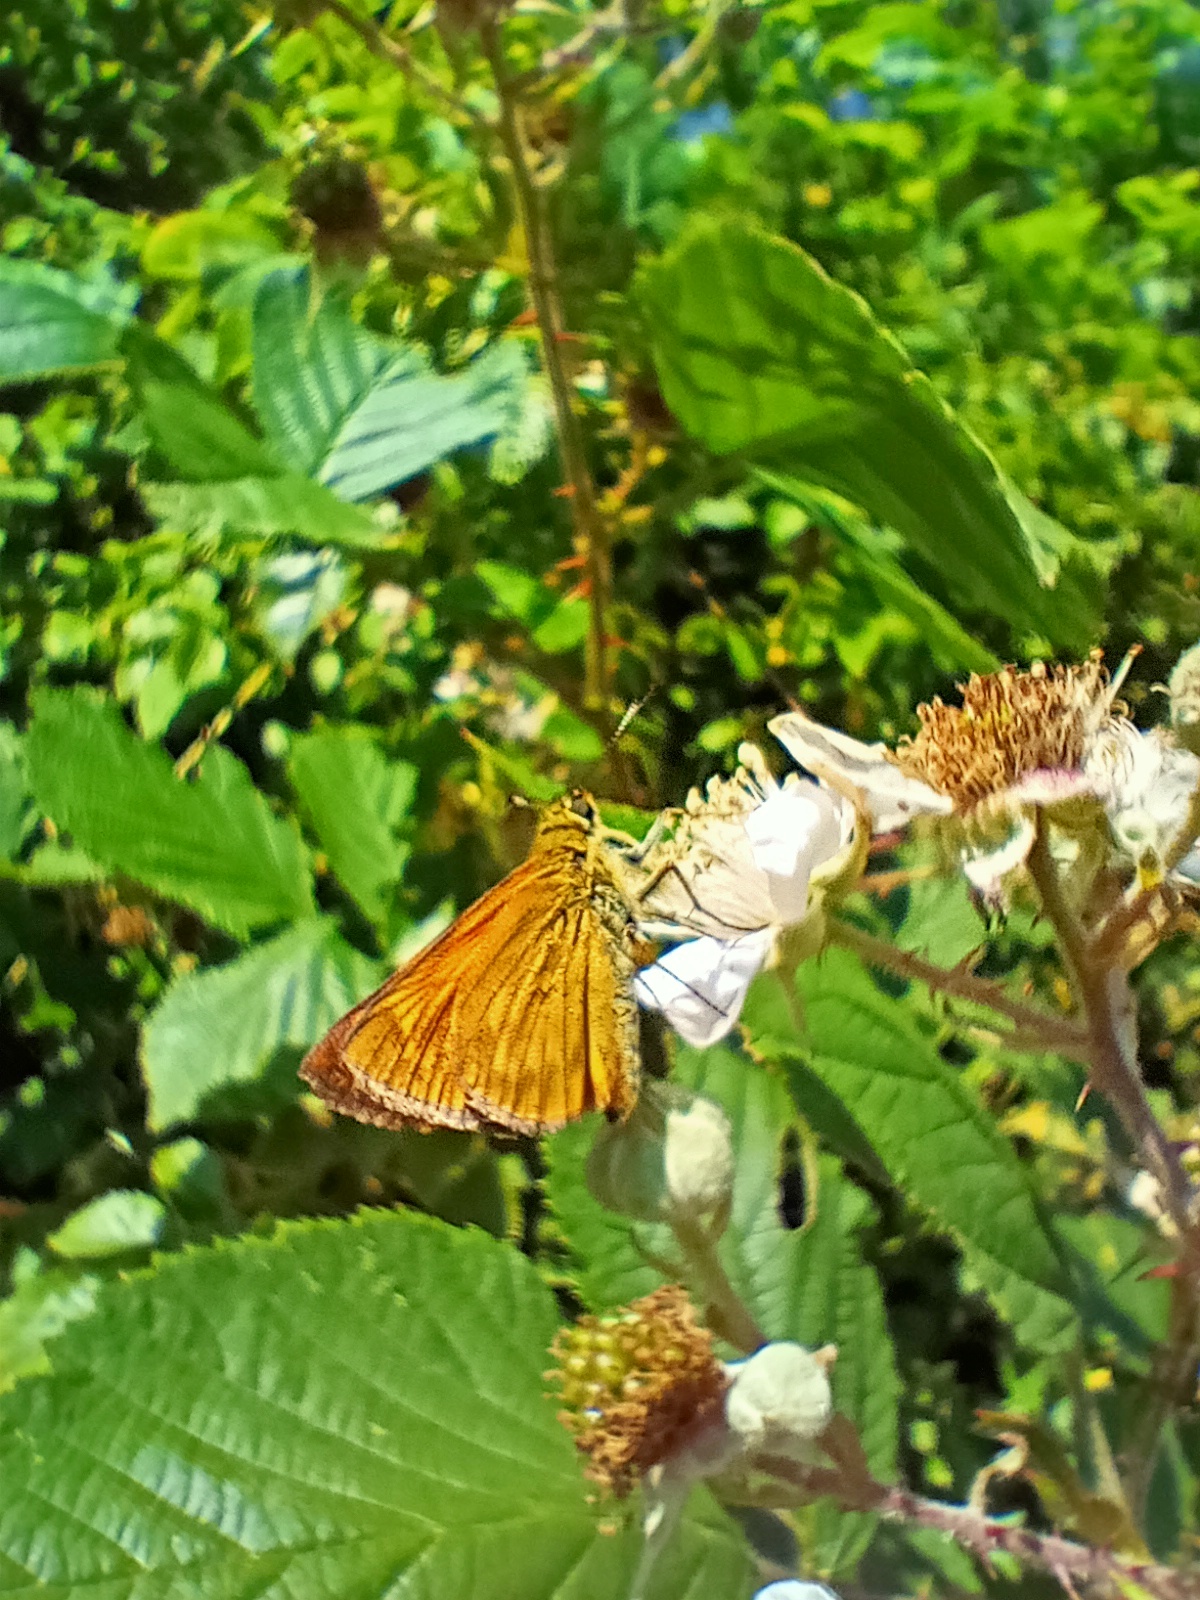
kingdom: Animalia
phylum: Arthropoda
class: Insecta
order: Lepidoptera
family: Hesperiidae
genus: Ochlodes
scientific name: Ochlodes venata
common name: Large skipper
